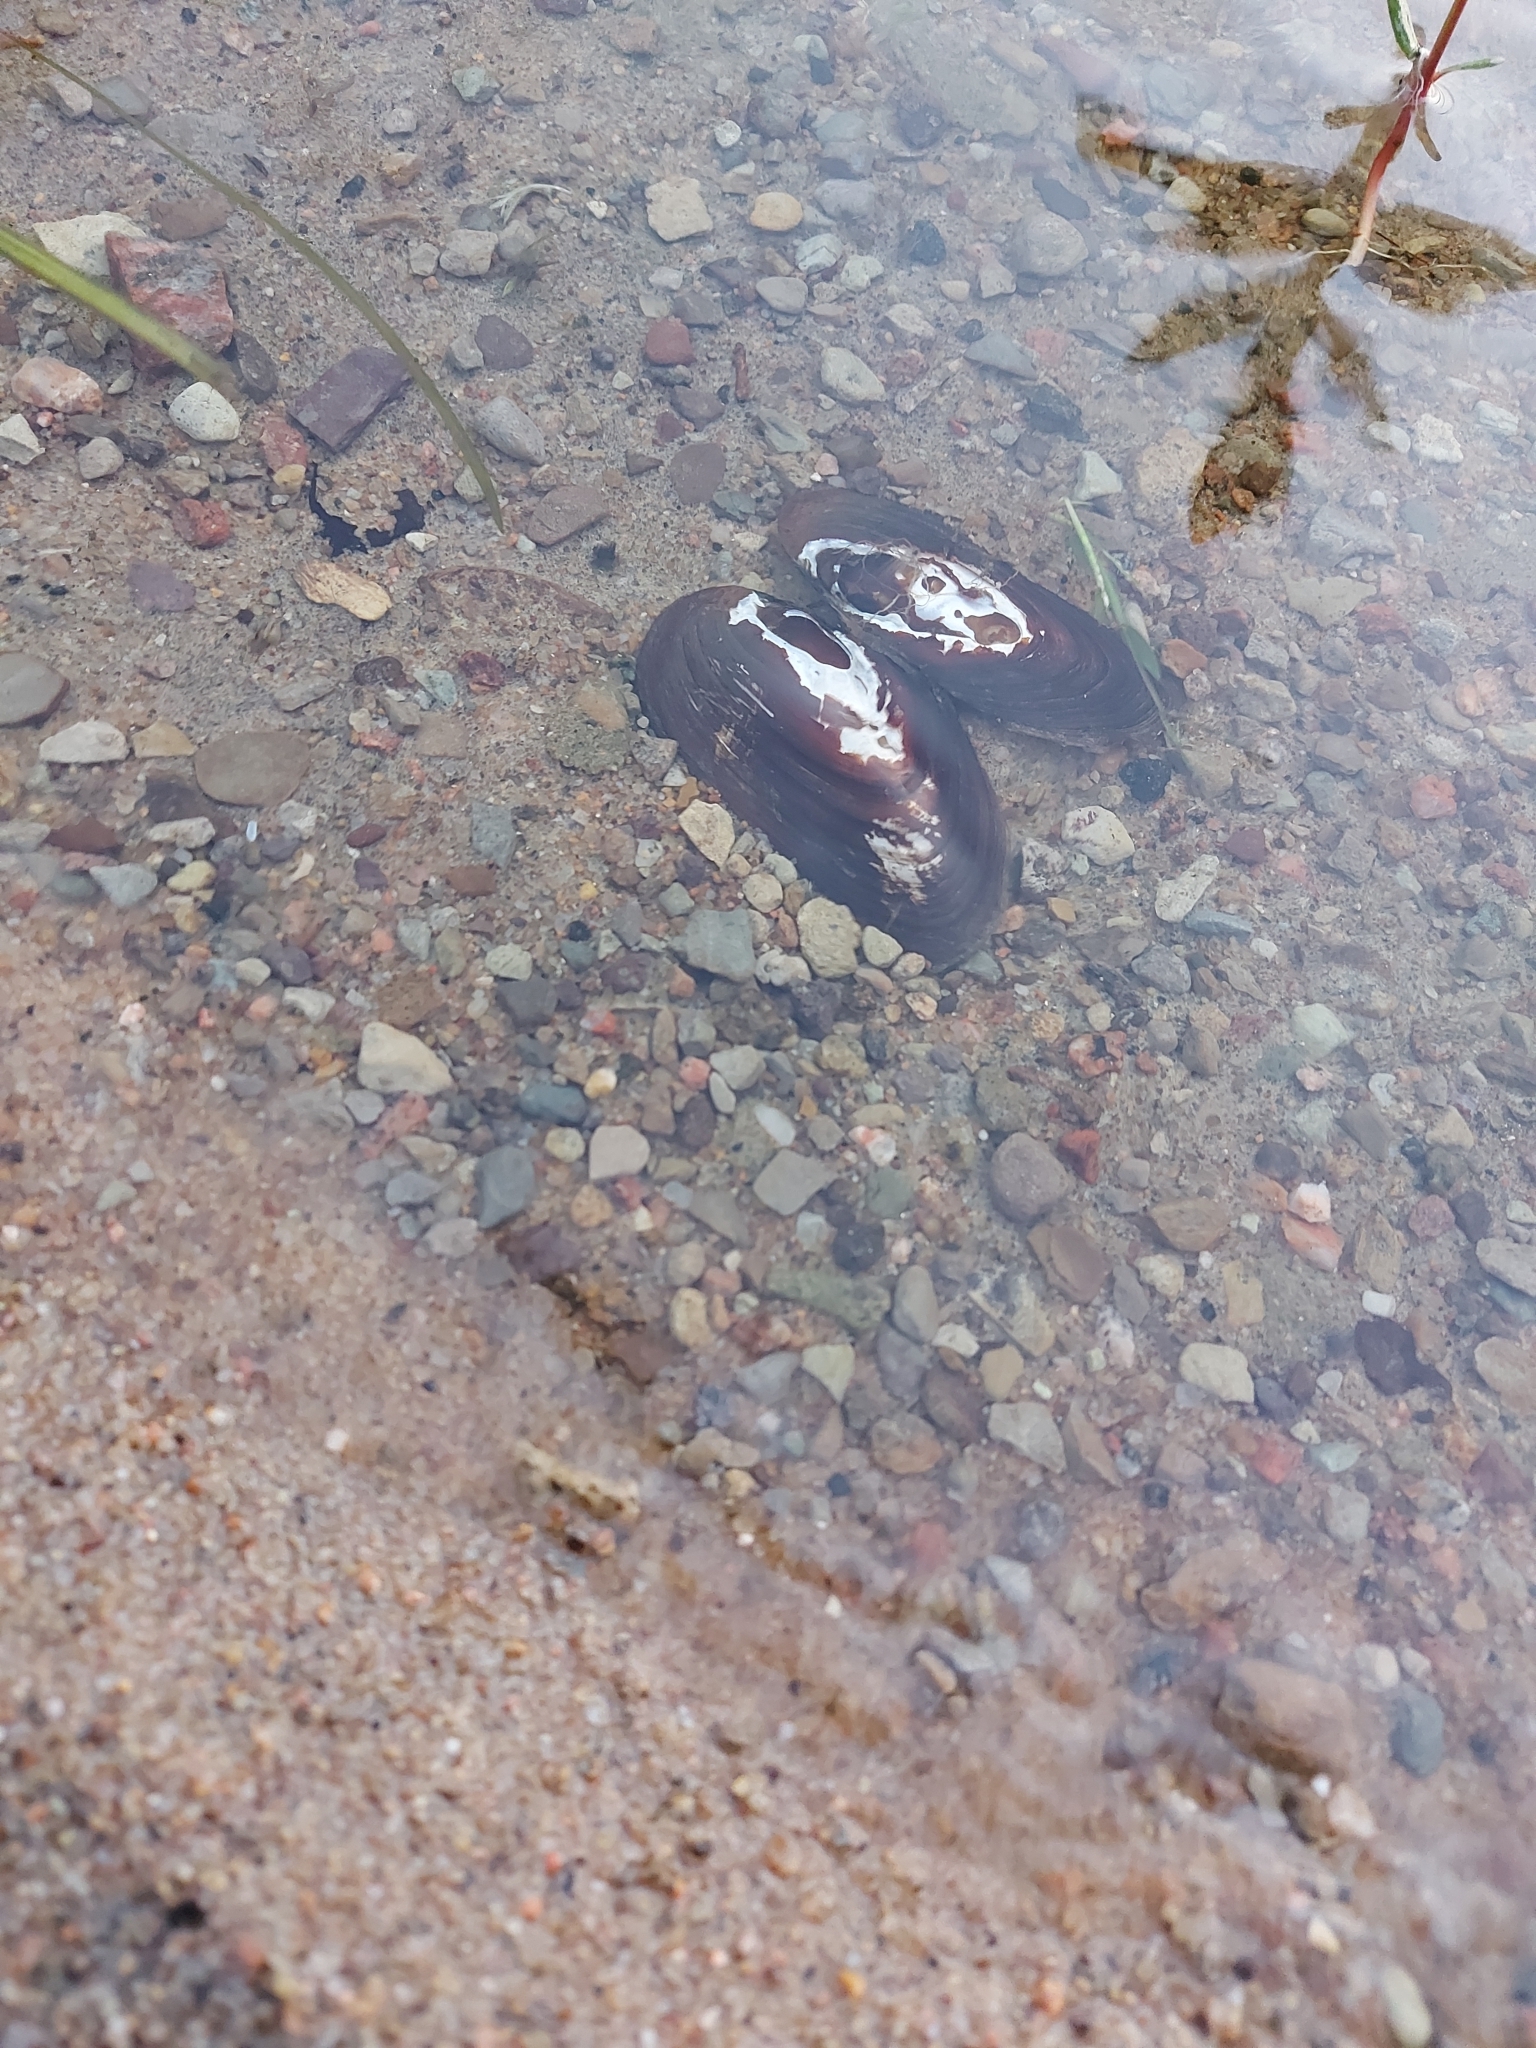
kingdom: Animalia
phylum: Mollusca
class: Bivalvia
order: Unionida
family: Unionidae
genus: Elliptio
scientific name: Elliptio complanata
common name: Eastern elliptio
